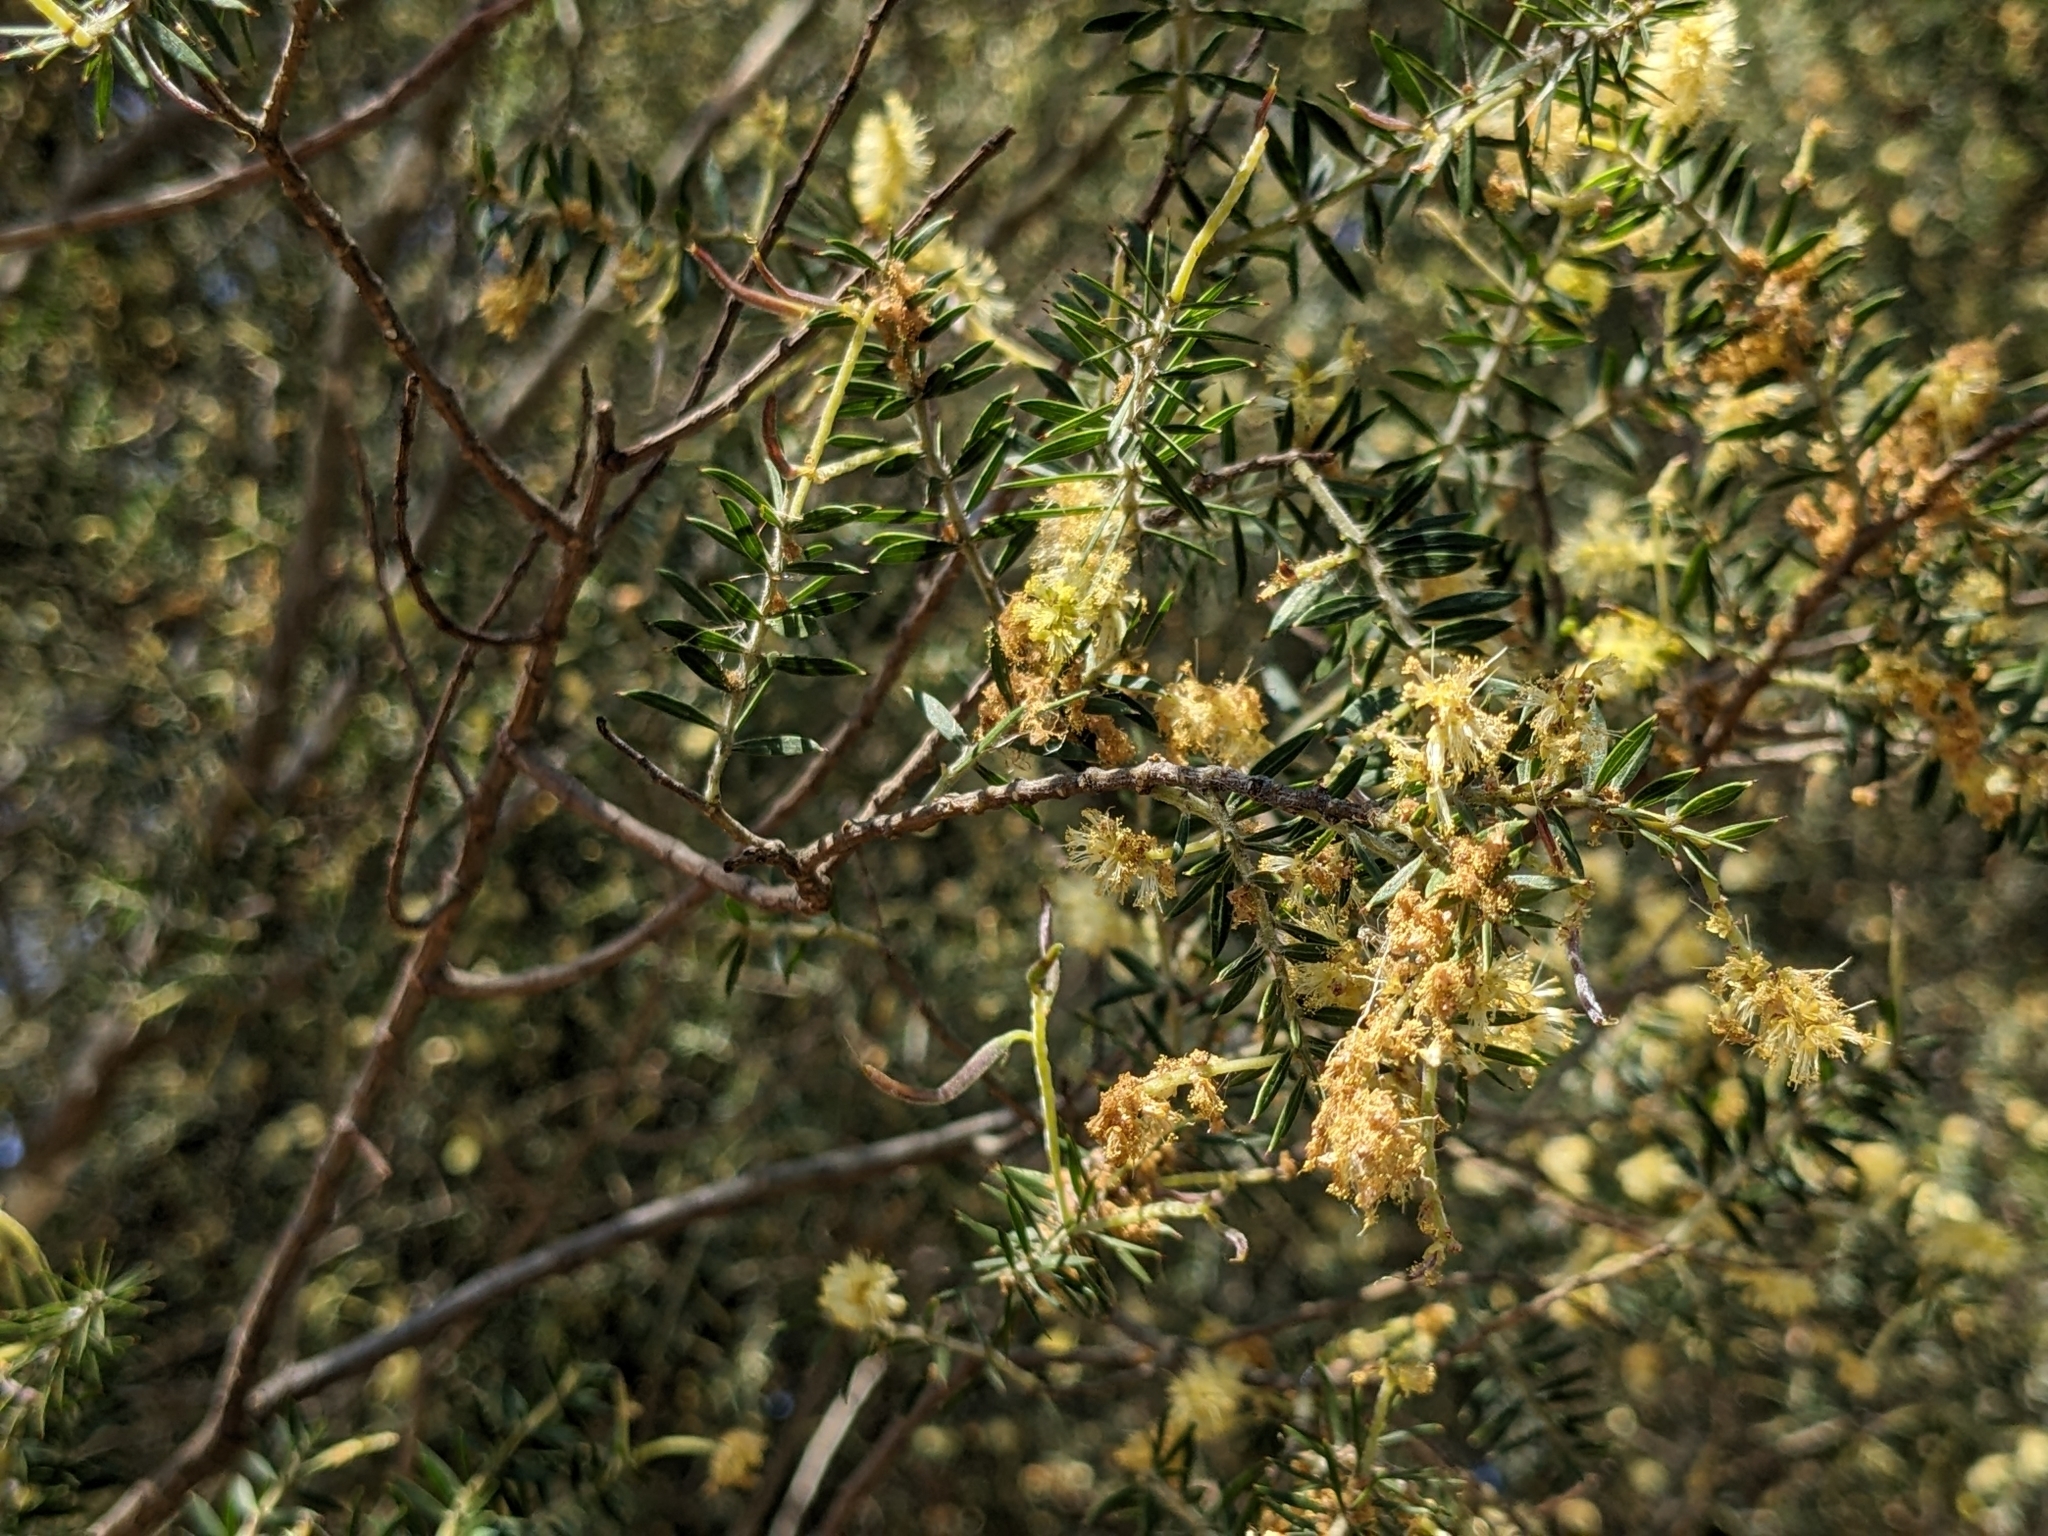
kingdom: Plantae
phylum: Tracheophyta
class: Magnoliopsida
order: Fabales
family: Fabaceae
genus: Acacia
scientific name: Acacia verticillata
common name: Prickly moses
